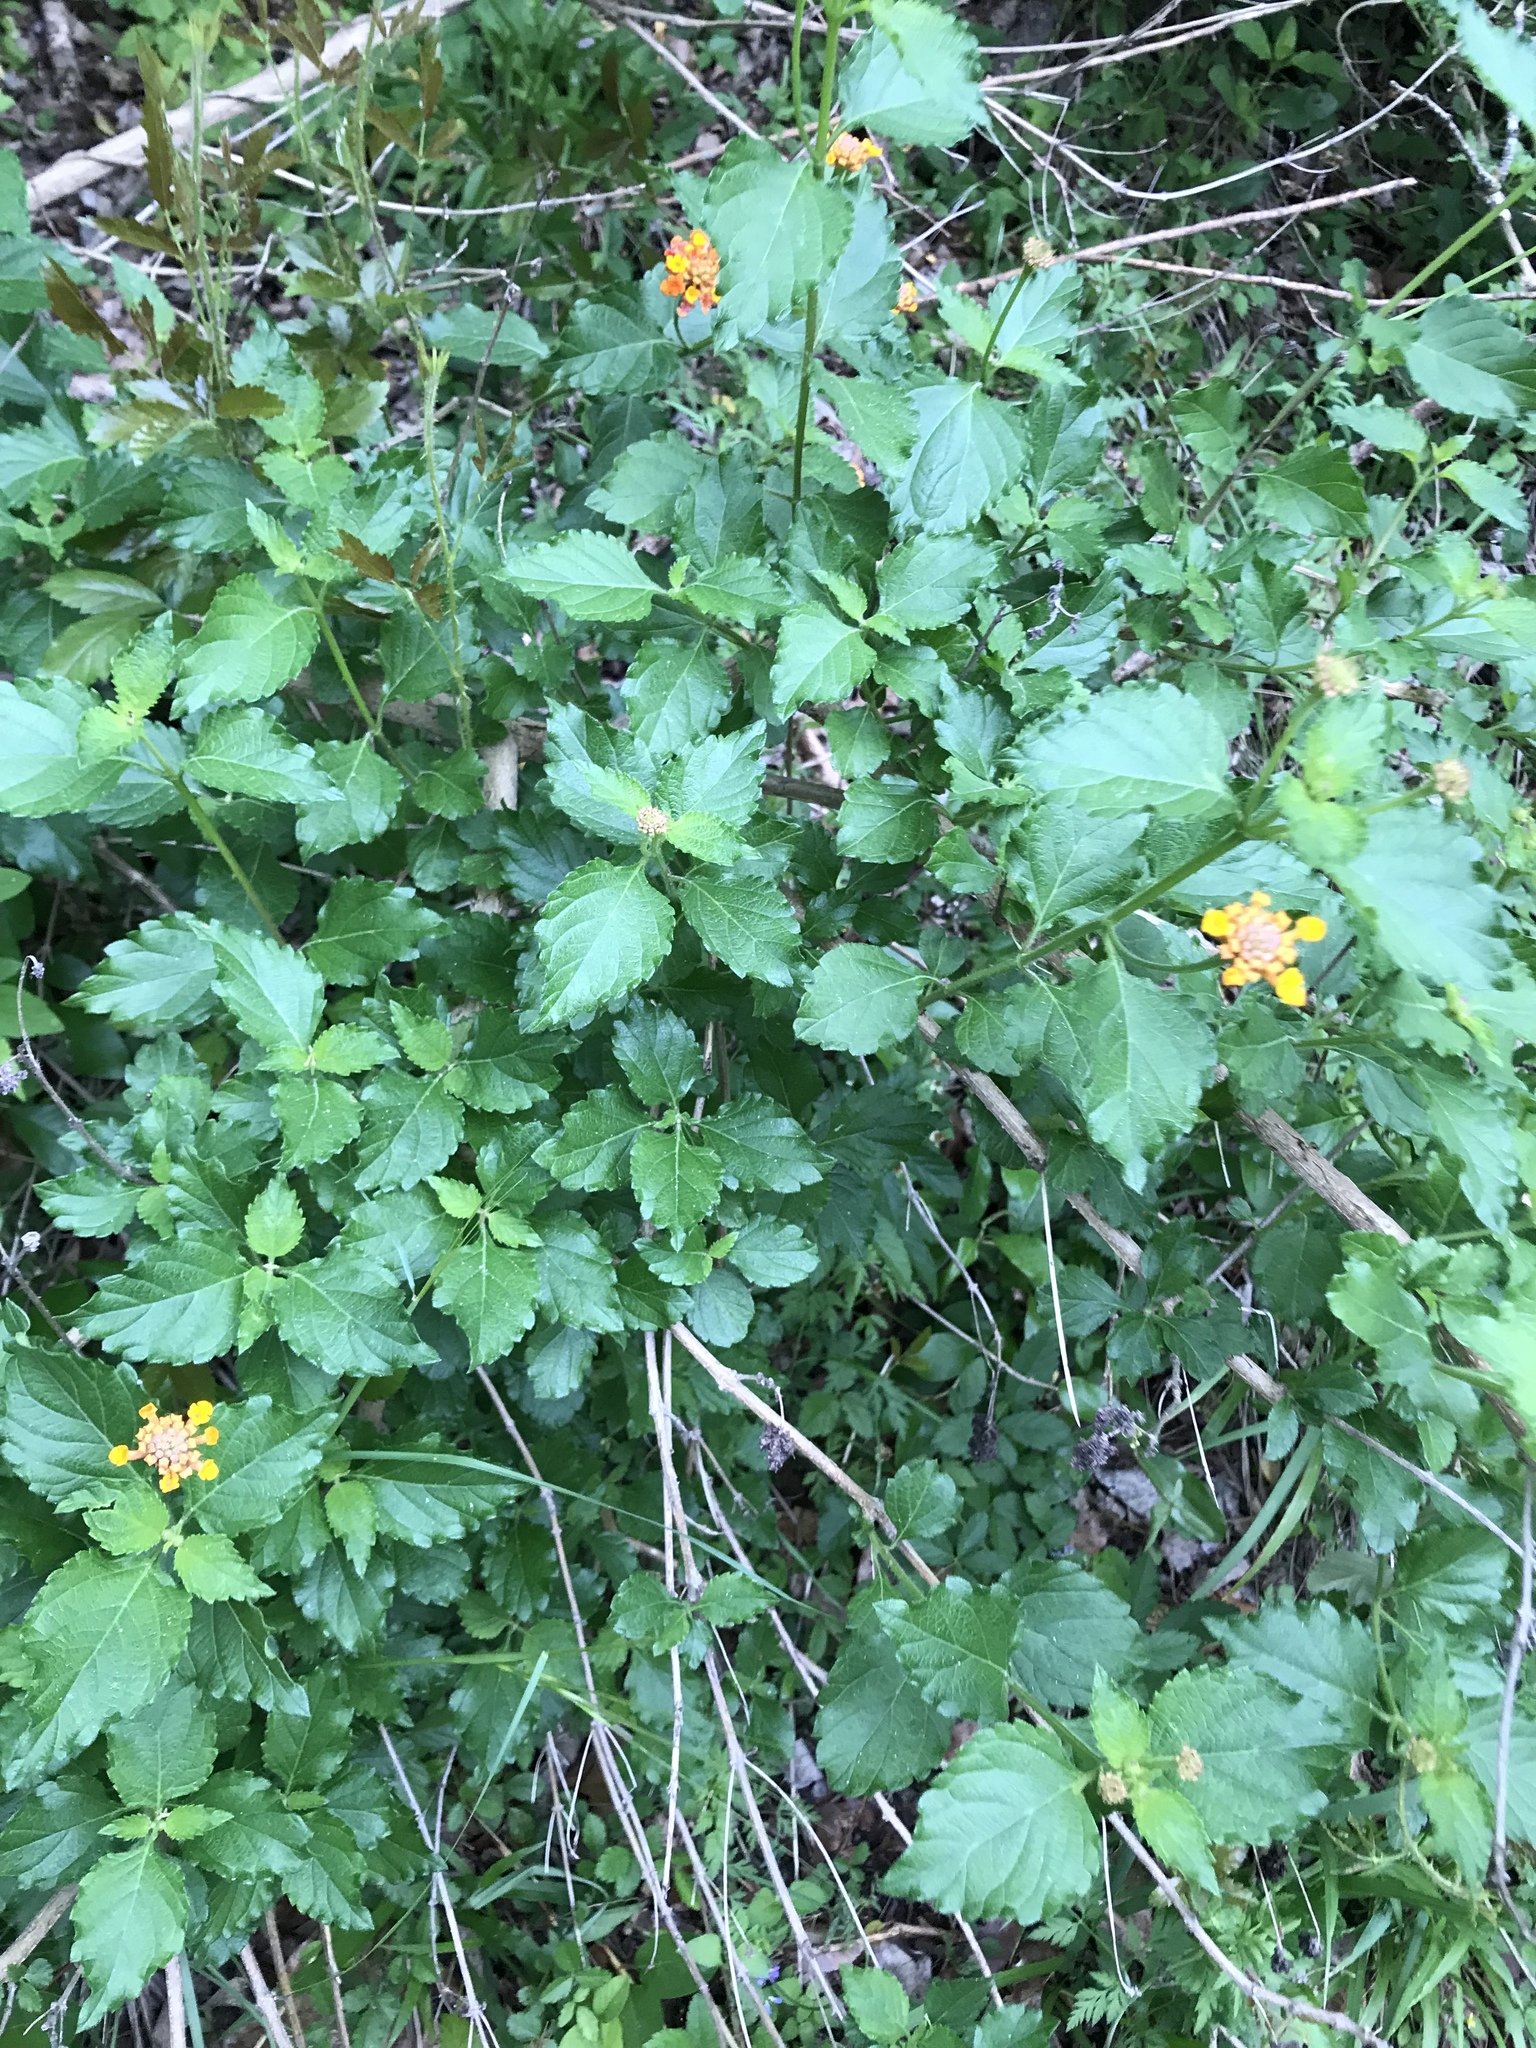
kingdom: Plantae
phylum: Tracheophyta
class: Magnoliopsida
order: Lamiales
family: Verbenaceae
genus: Lantana
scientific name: Lantana camara
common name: Lantana
